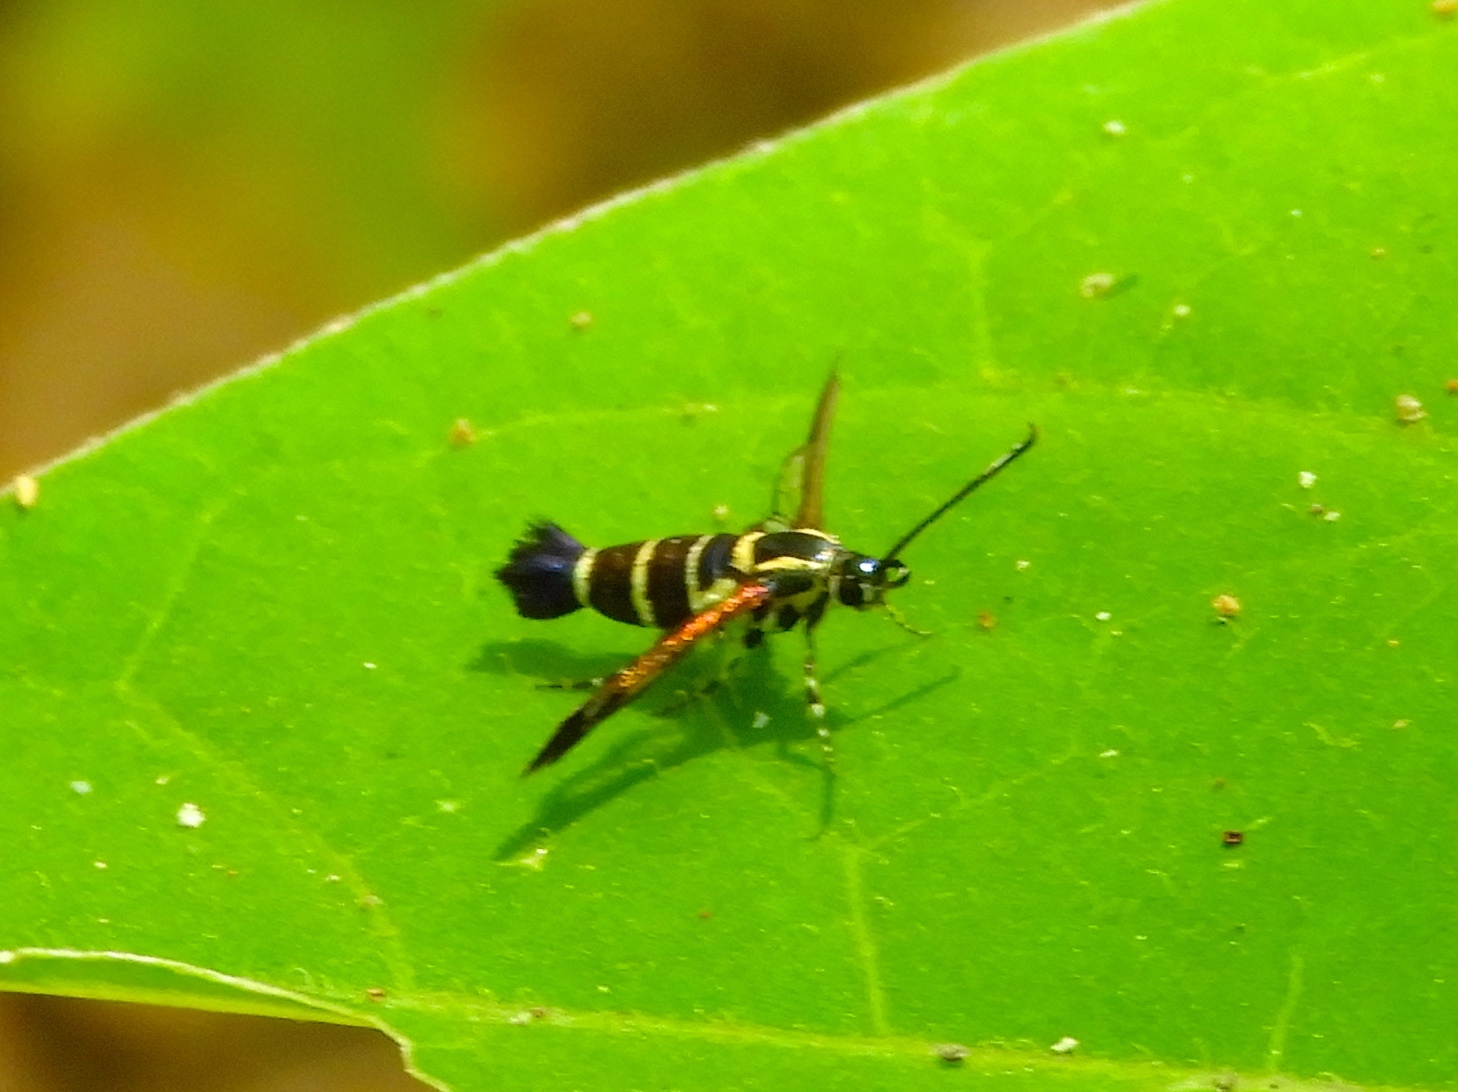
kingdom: Animalia
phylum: Arthropoda
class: Insecta
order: Lepidoptera
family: Sesiidae
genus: Carmenta
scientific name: Carmenta ithacae
